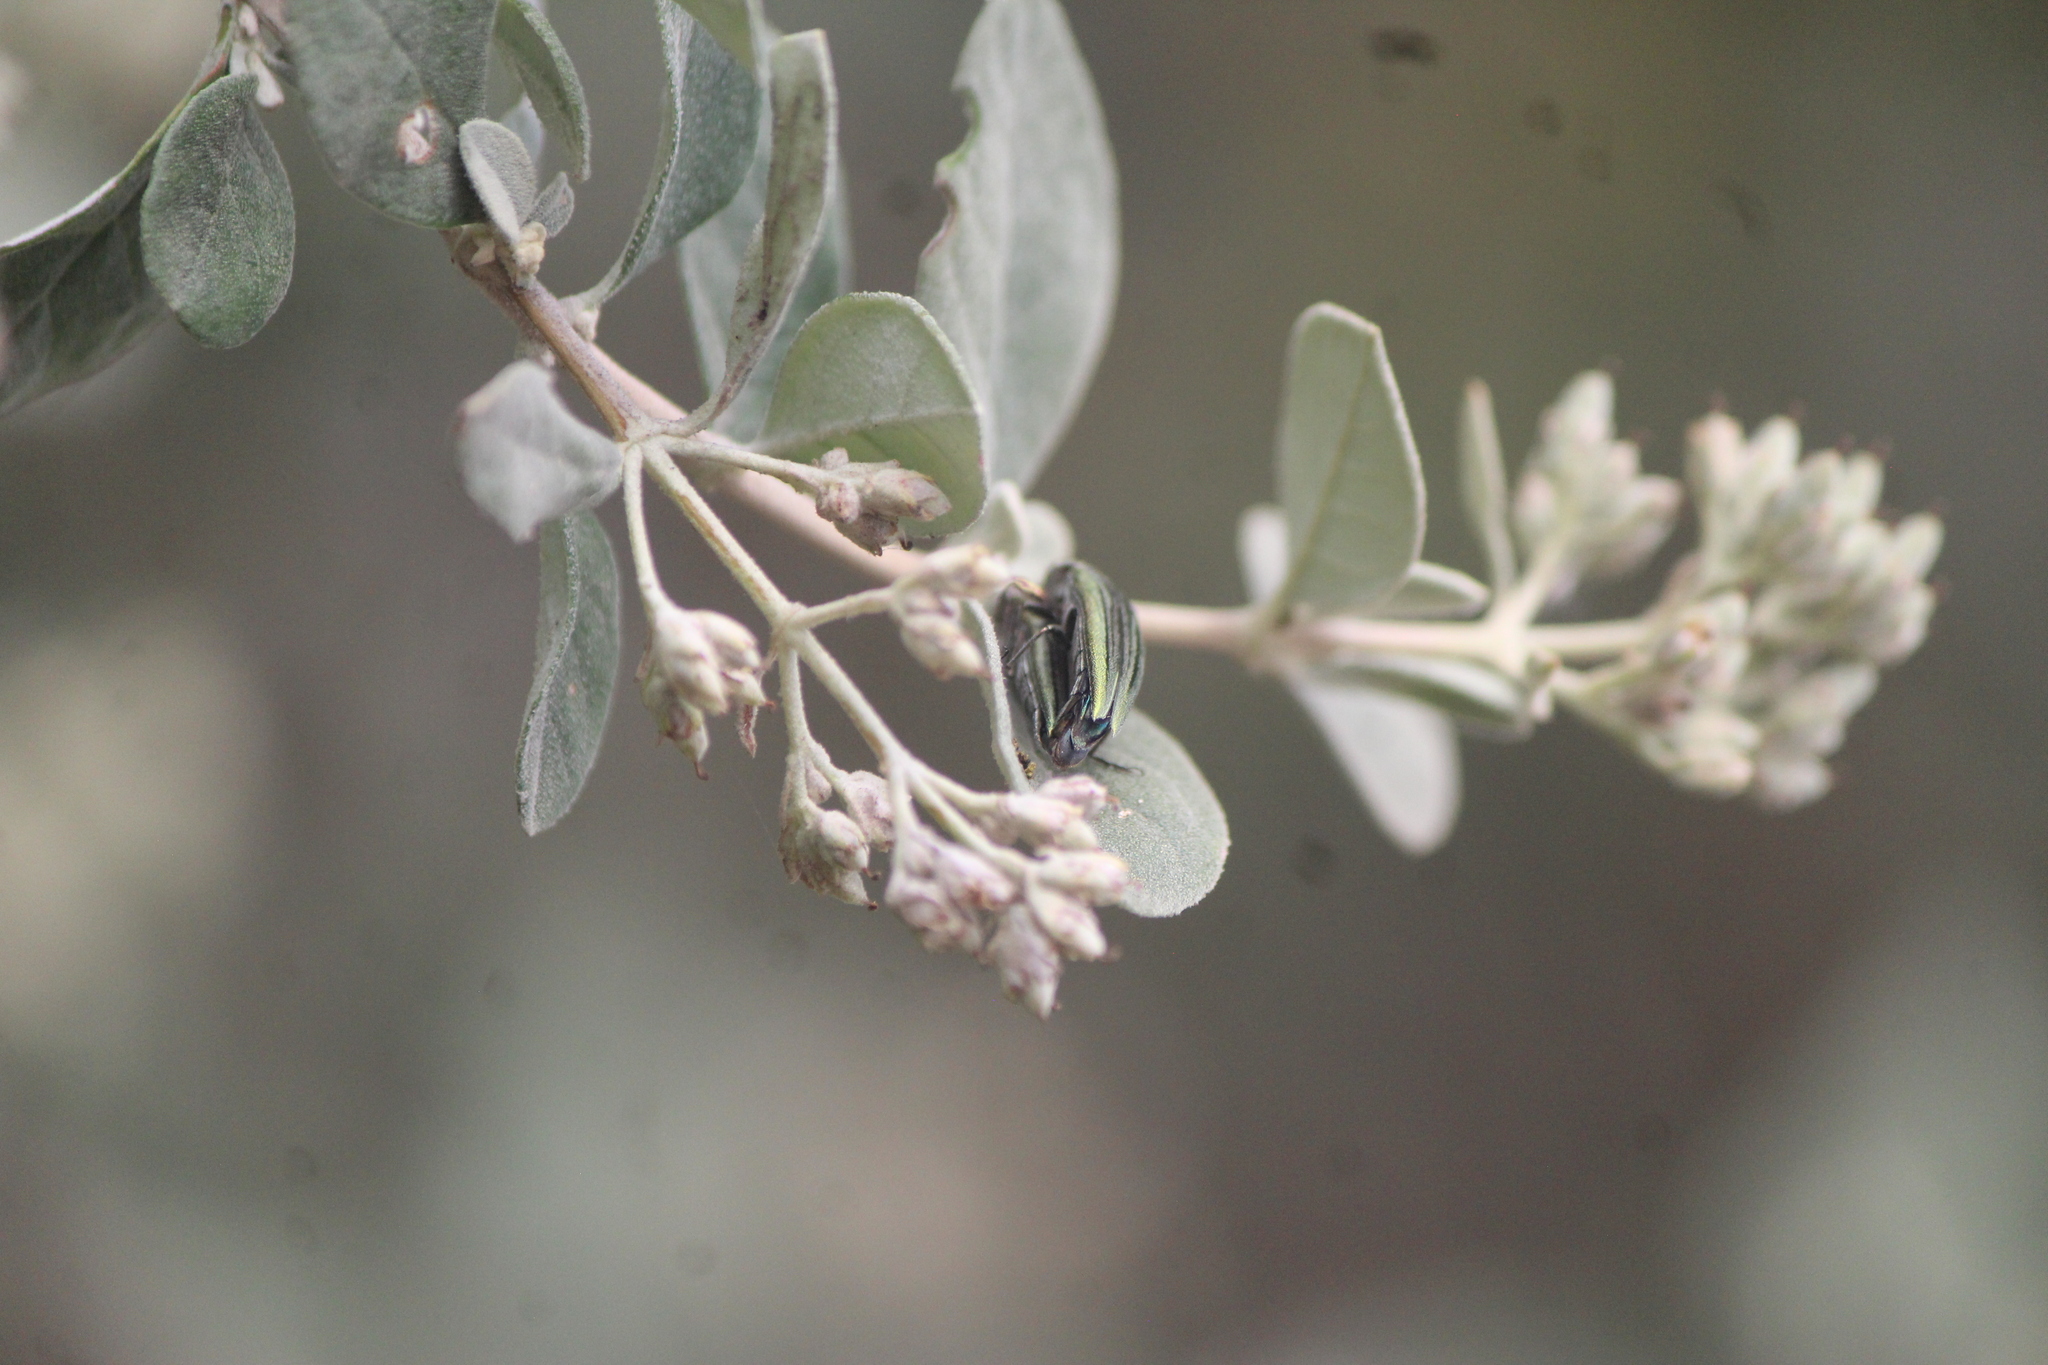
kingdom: Animalia
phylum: Arthropoda
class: Insecta
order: Coleoptera
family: Buprestidae
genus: Agrilus
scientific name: Agrilus sulcatulus
